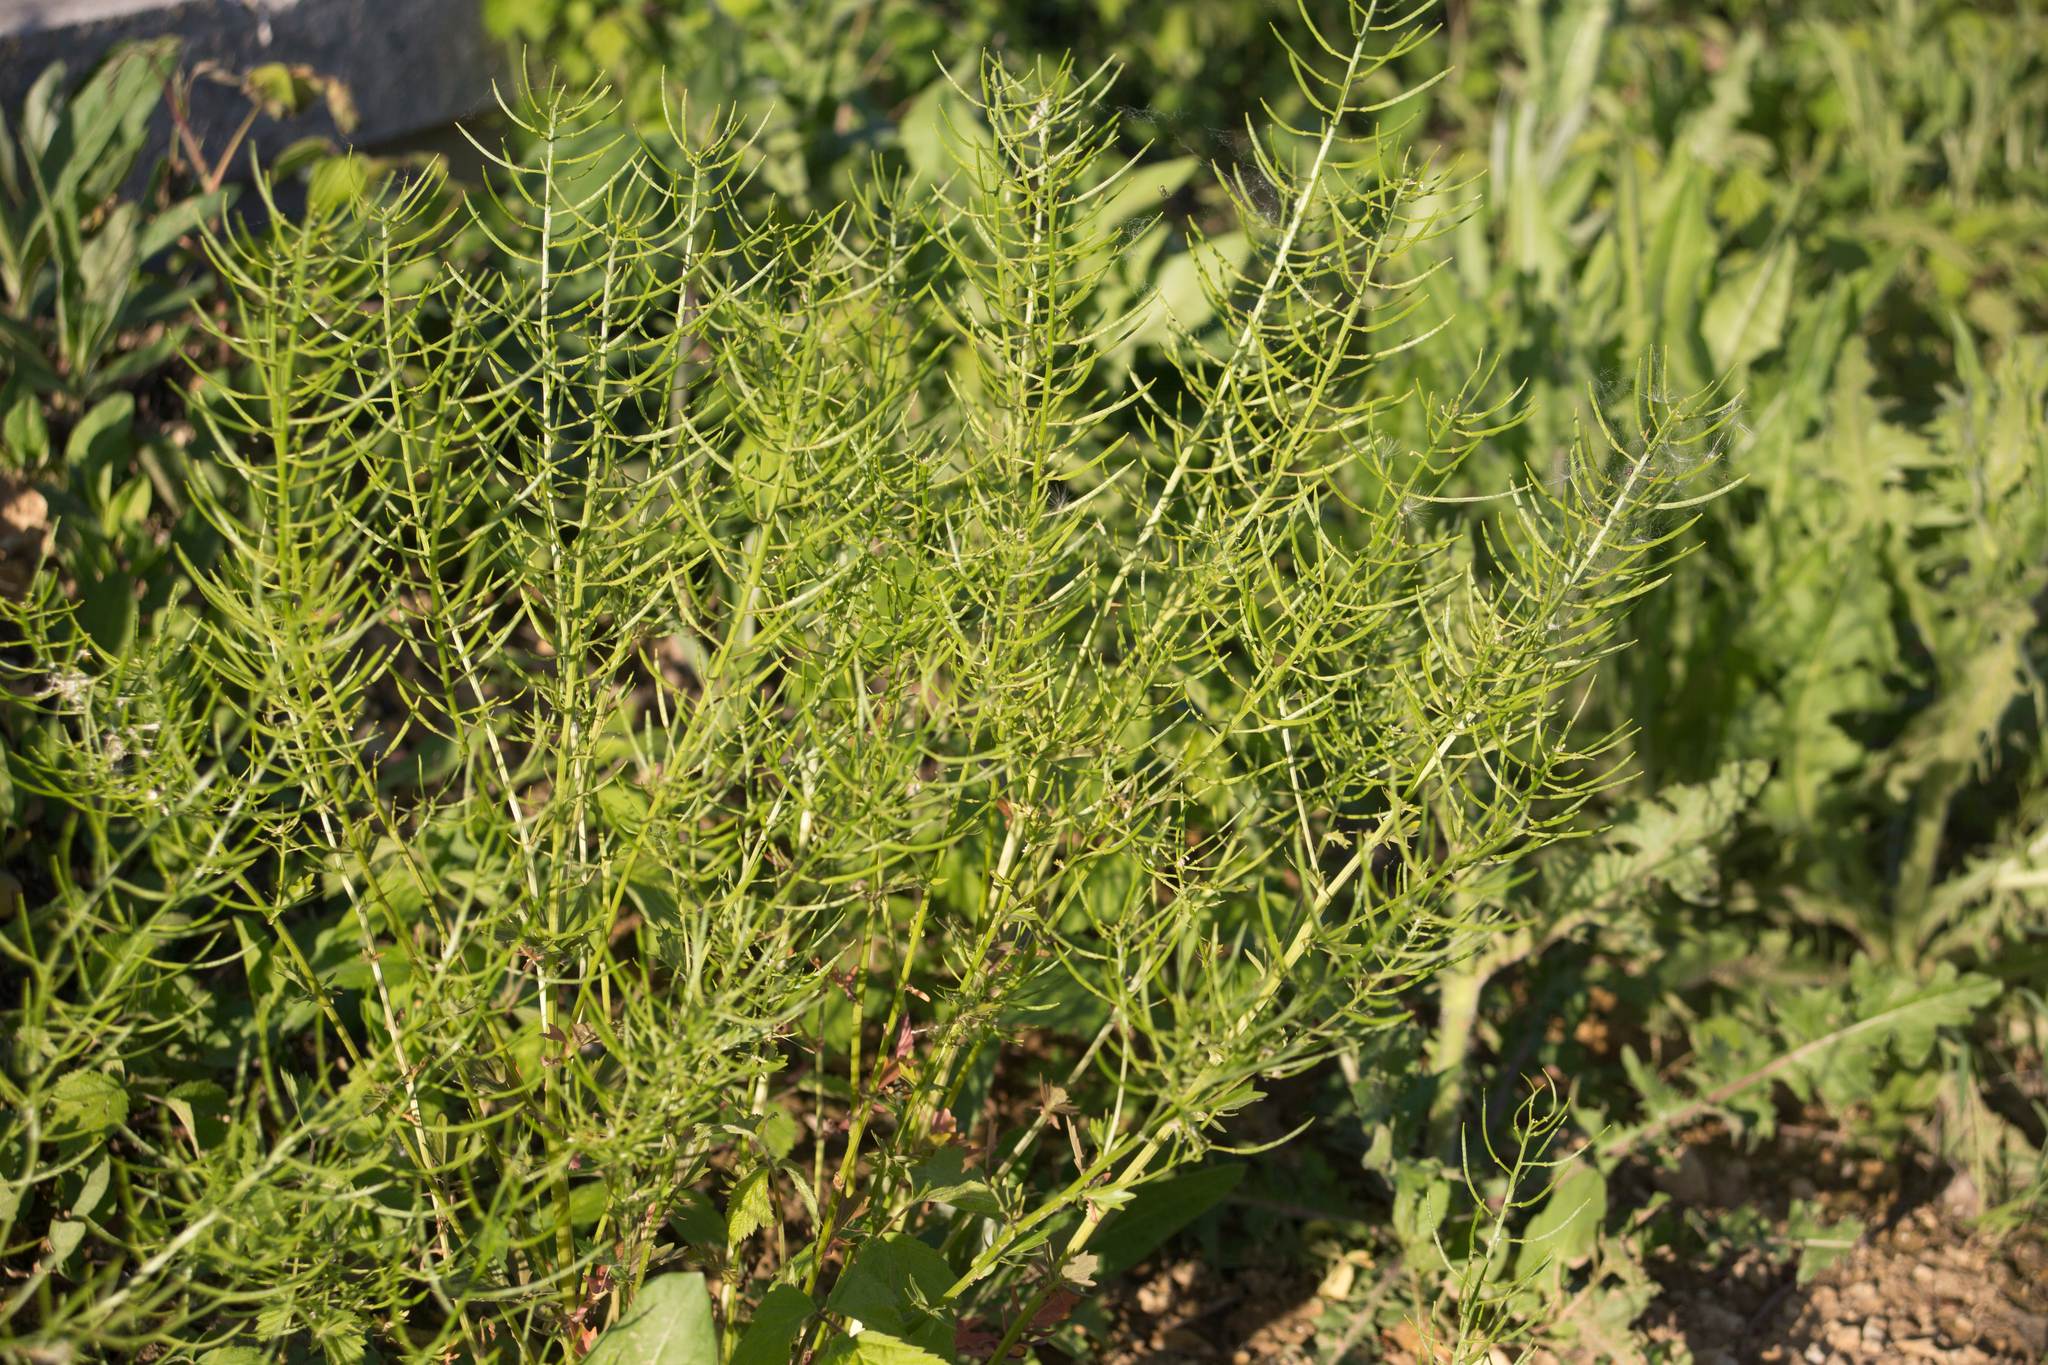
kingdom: Plantae
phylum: Tracheophyta
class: Magnoliopsida
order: Brassicales
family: Brassicaceae
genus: Barbarea
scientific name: Barbarea vulgaris
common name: Cressy-greens
